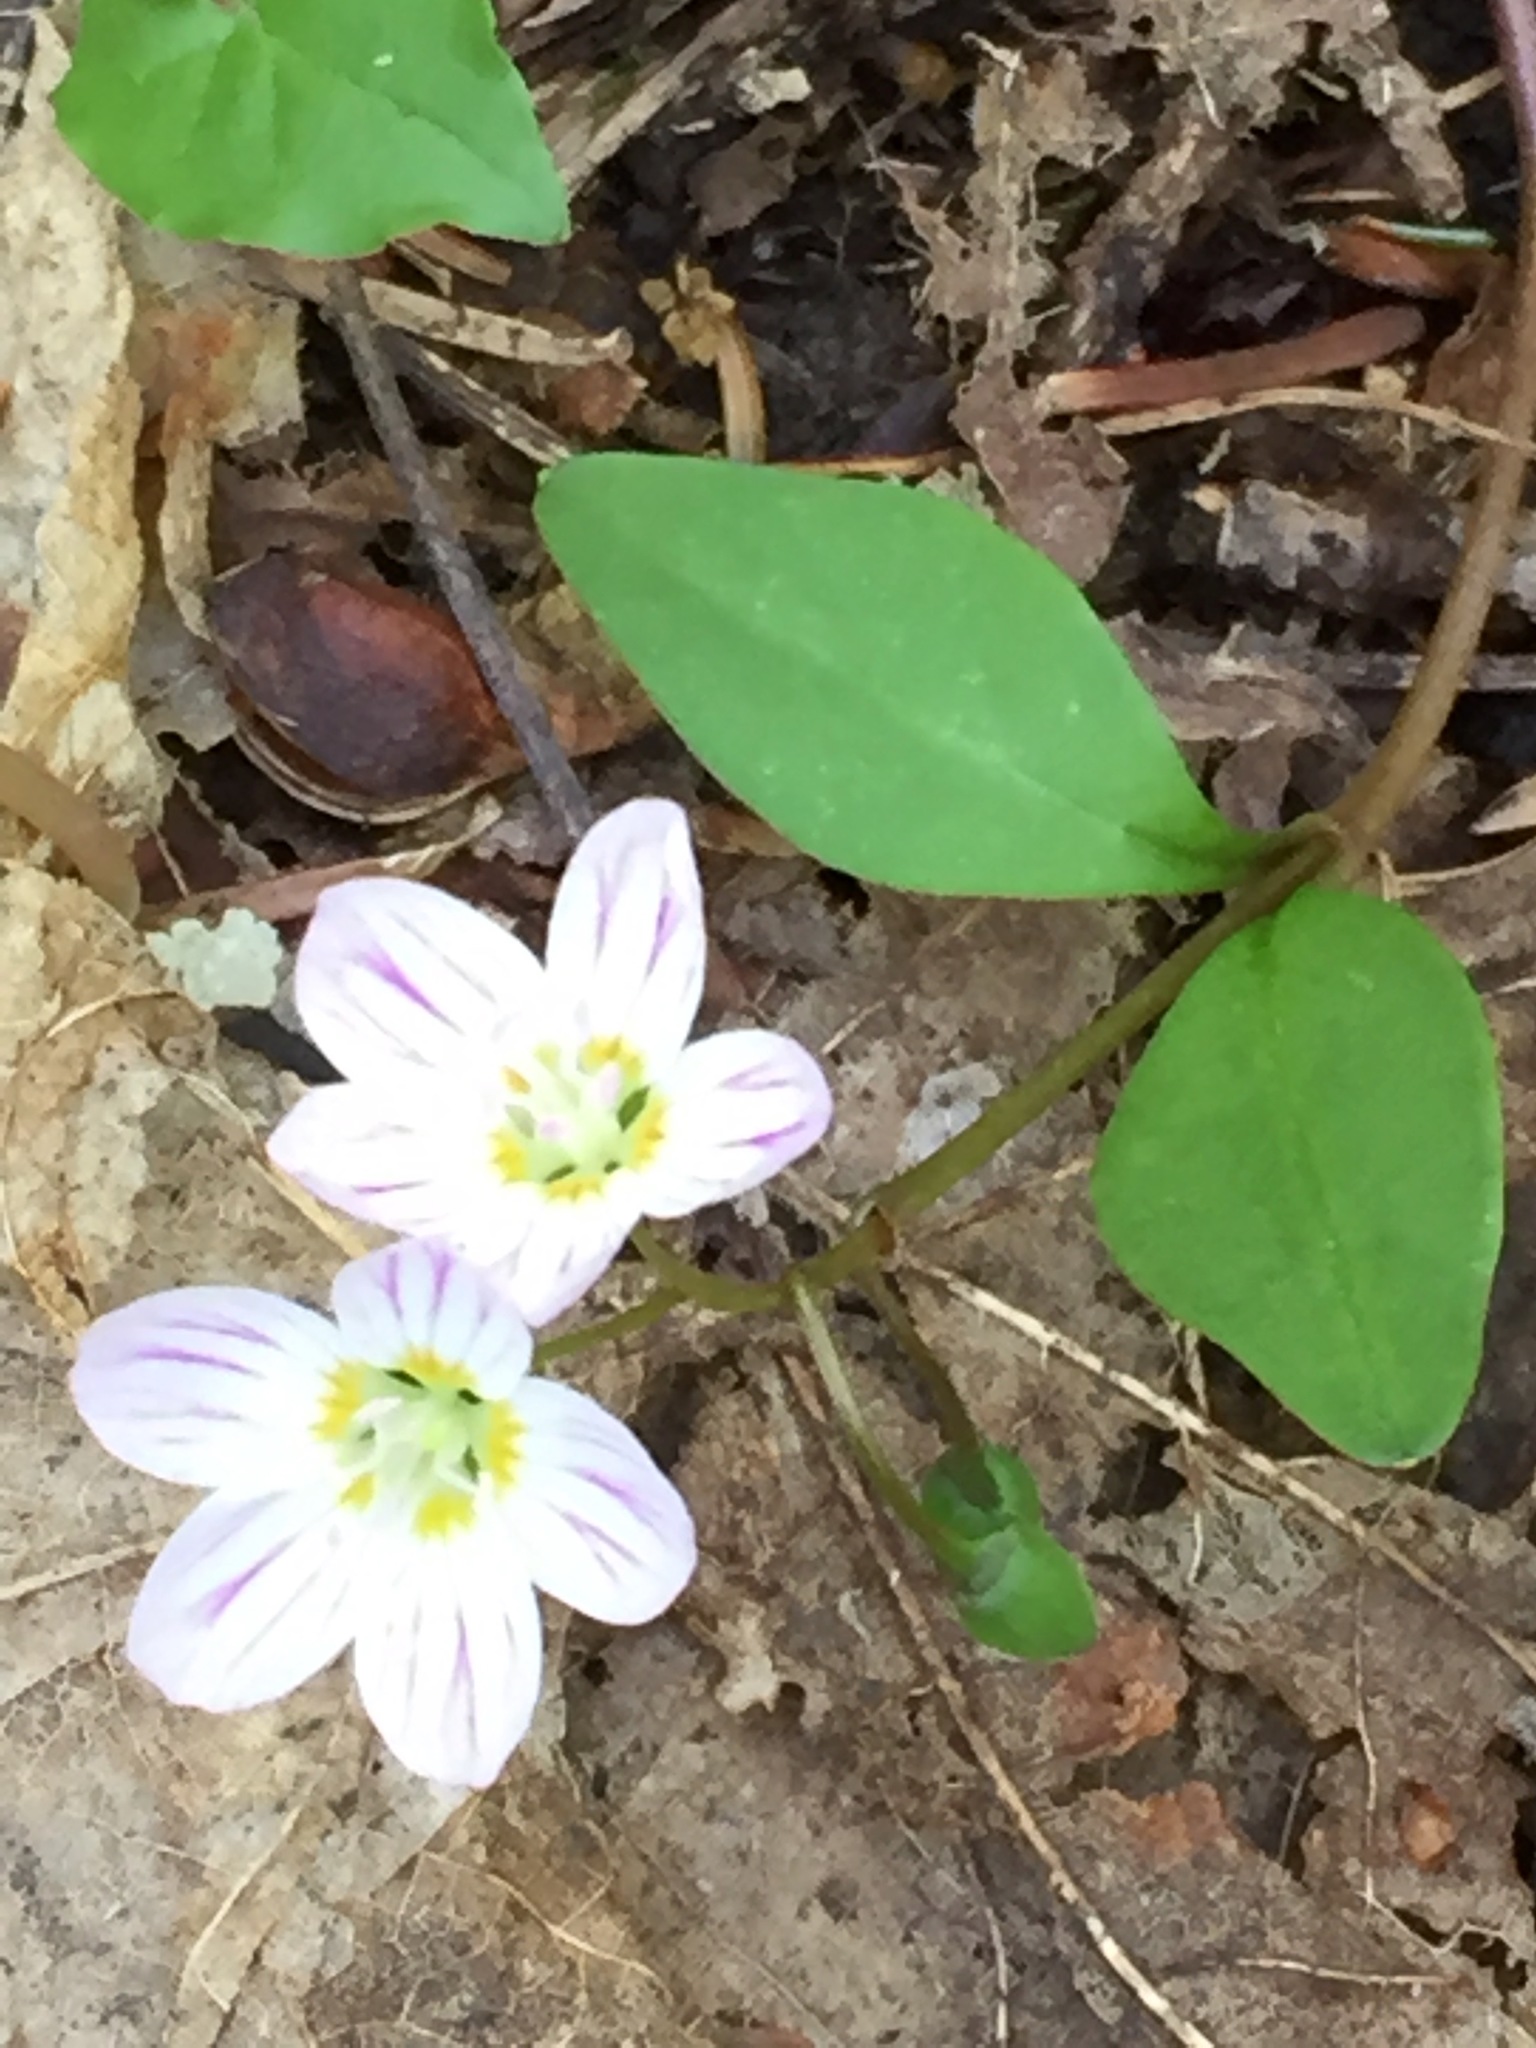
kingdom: Plantae
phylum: Tracheophyta
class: Magnoliopsida
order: Caryophyllales
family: Montiaceae
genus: Claytonia
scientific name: Claytonia caroliniana
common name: Carolina spring beauty
